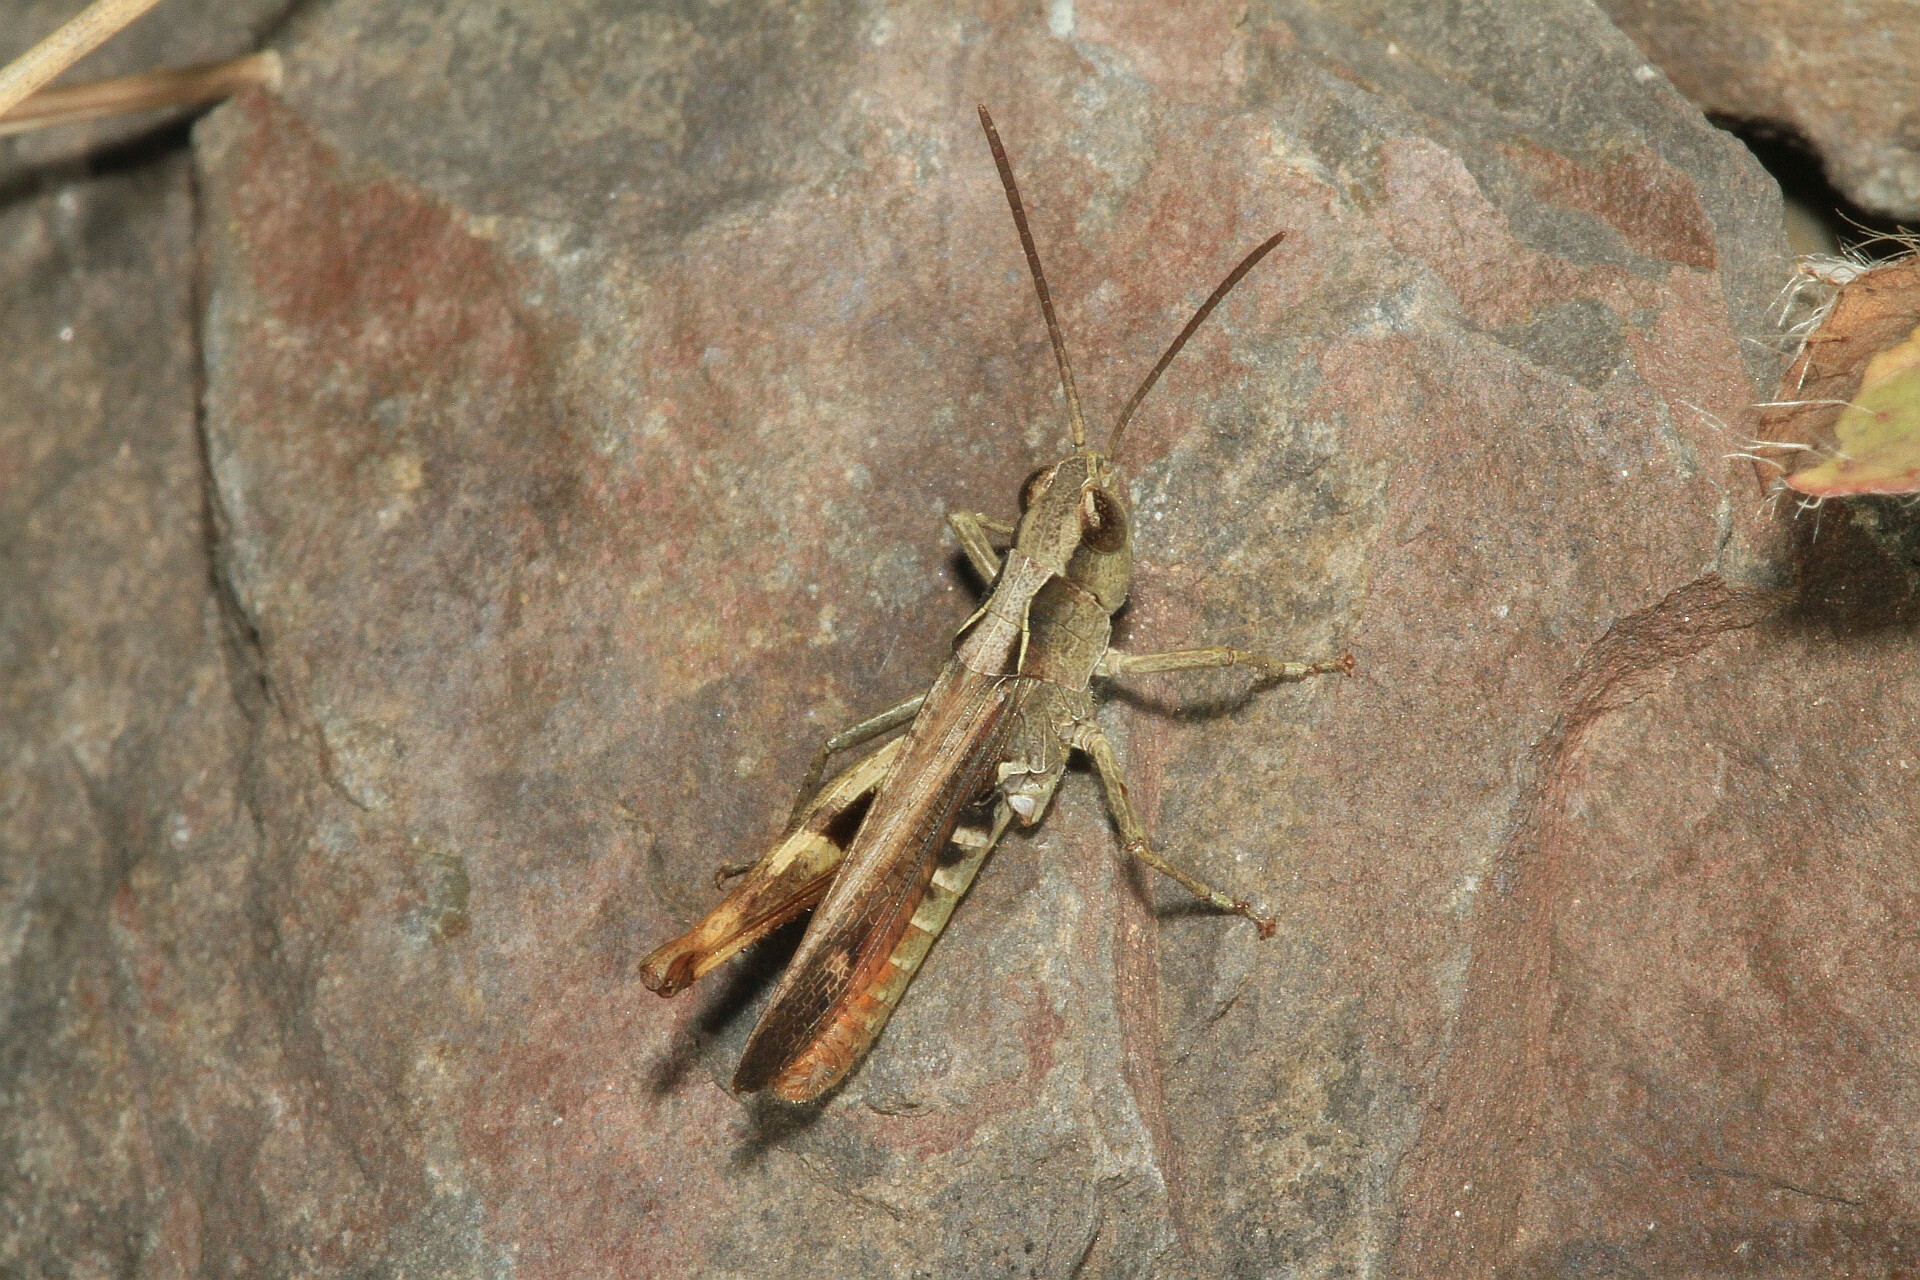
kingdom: Animalia
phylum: Arthropoda
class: Insecta
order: Orthoptera
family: Acrididae
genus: Chorthippus
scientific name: Chorthippus vagans
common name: Heath grasshopper
